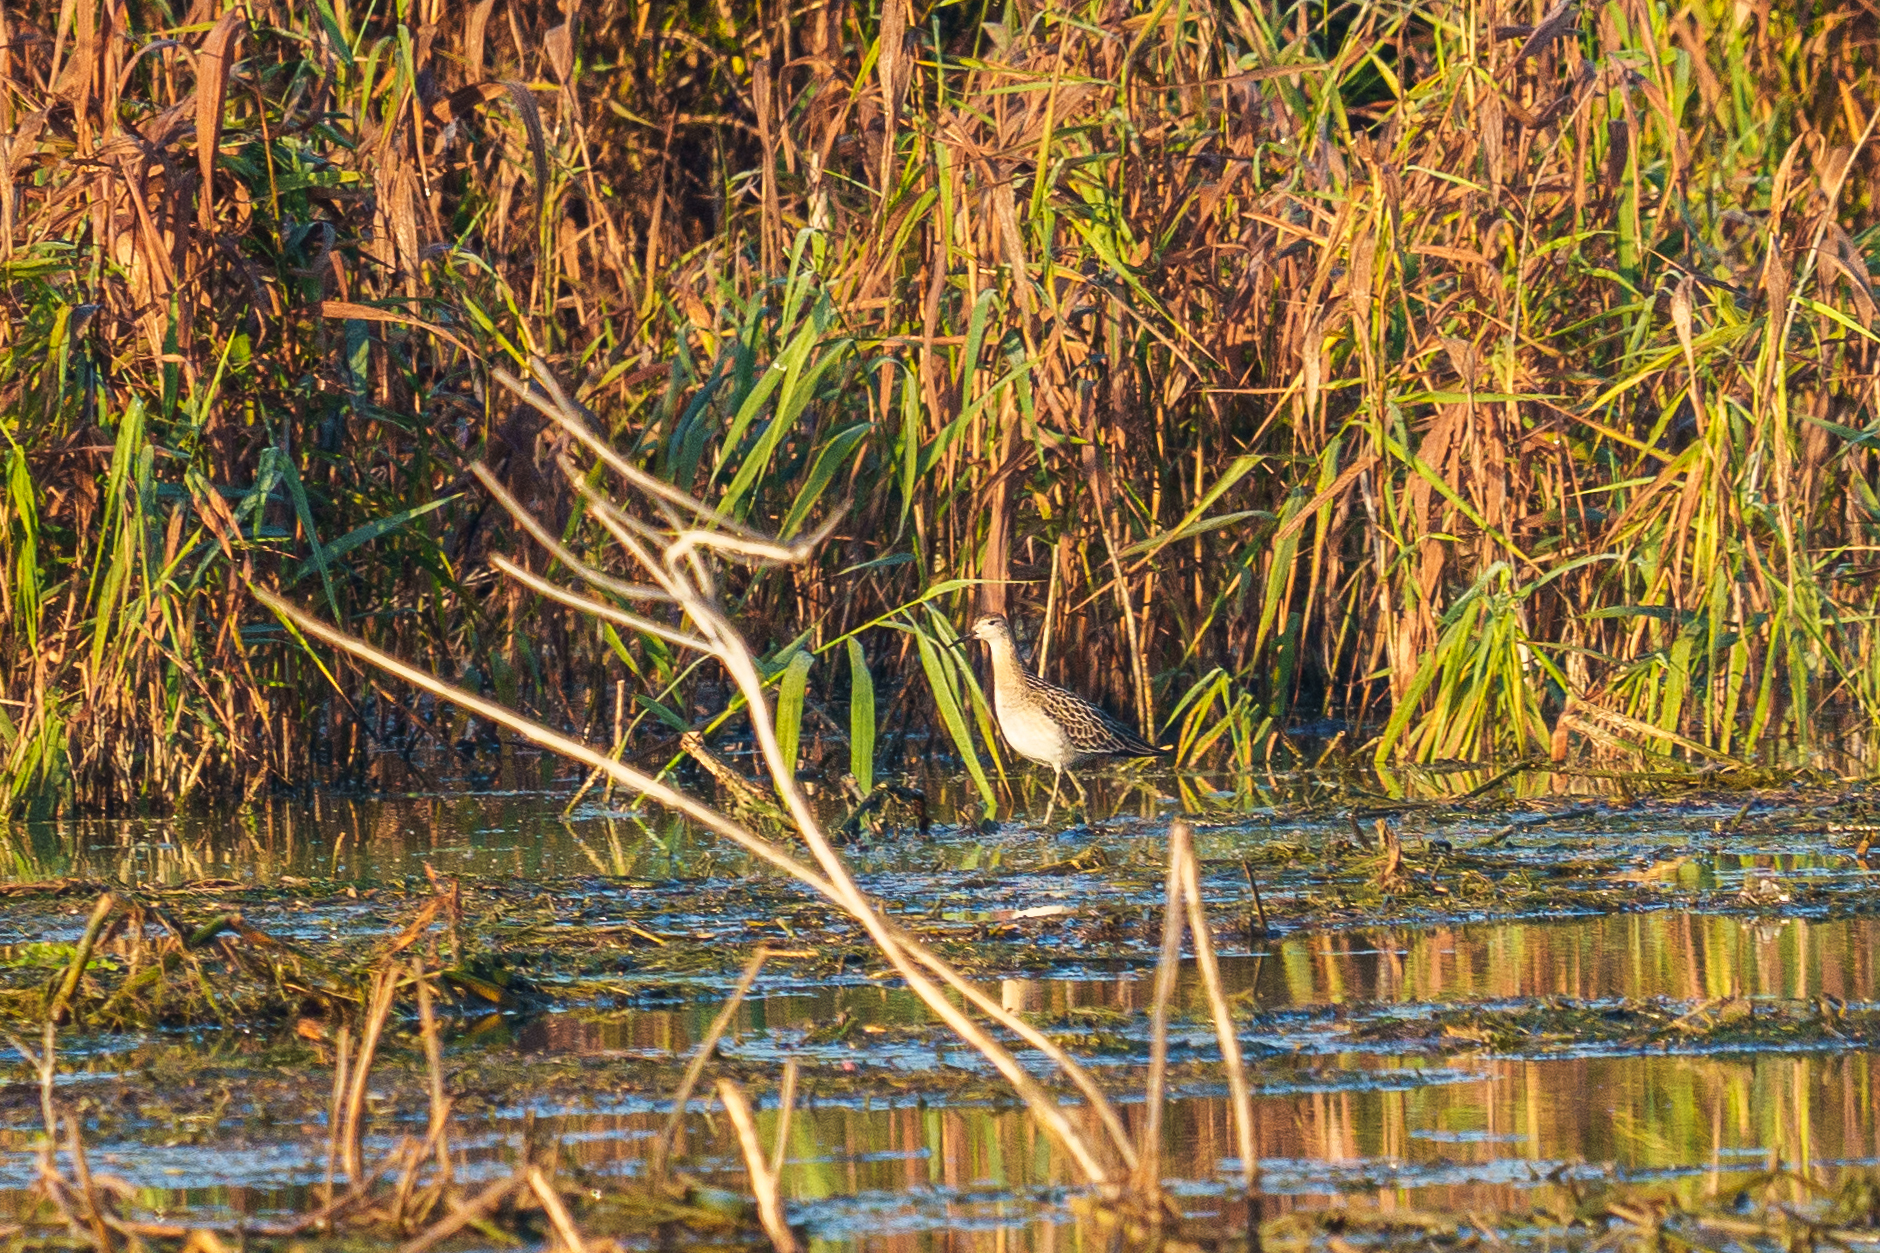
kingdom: Animalia
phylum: Chordata
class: Aves
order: Charadriiformes
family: Scolopacidae
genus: Calidris
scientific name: Calidris pugnax
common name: Ruff
